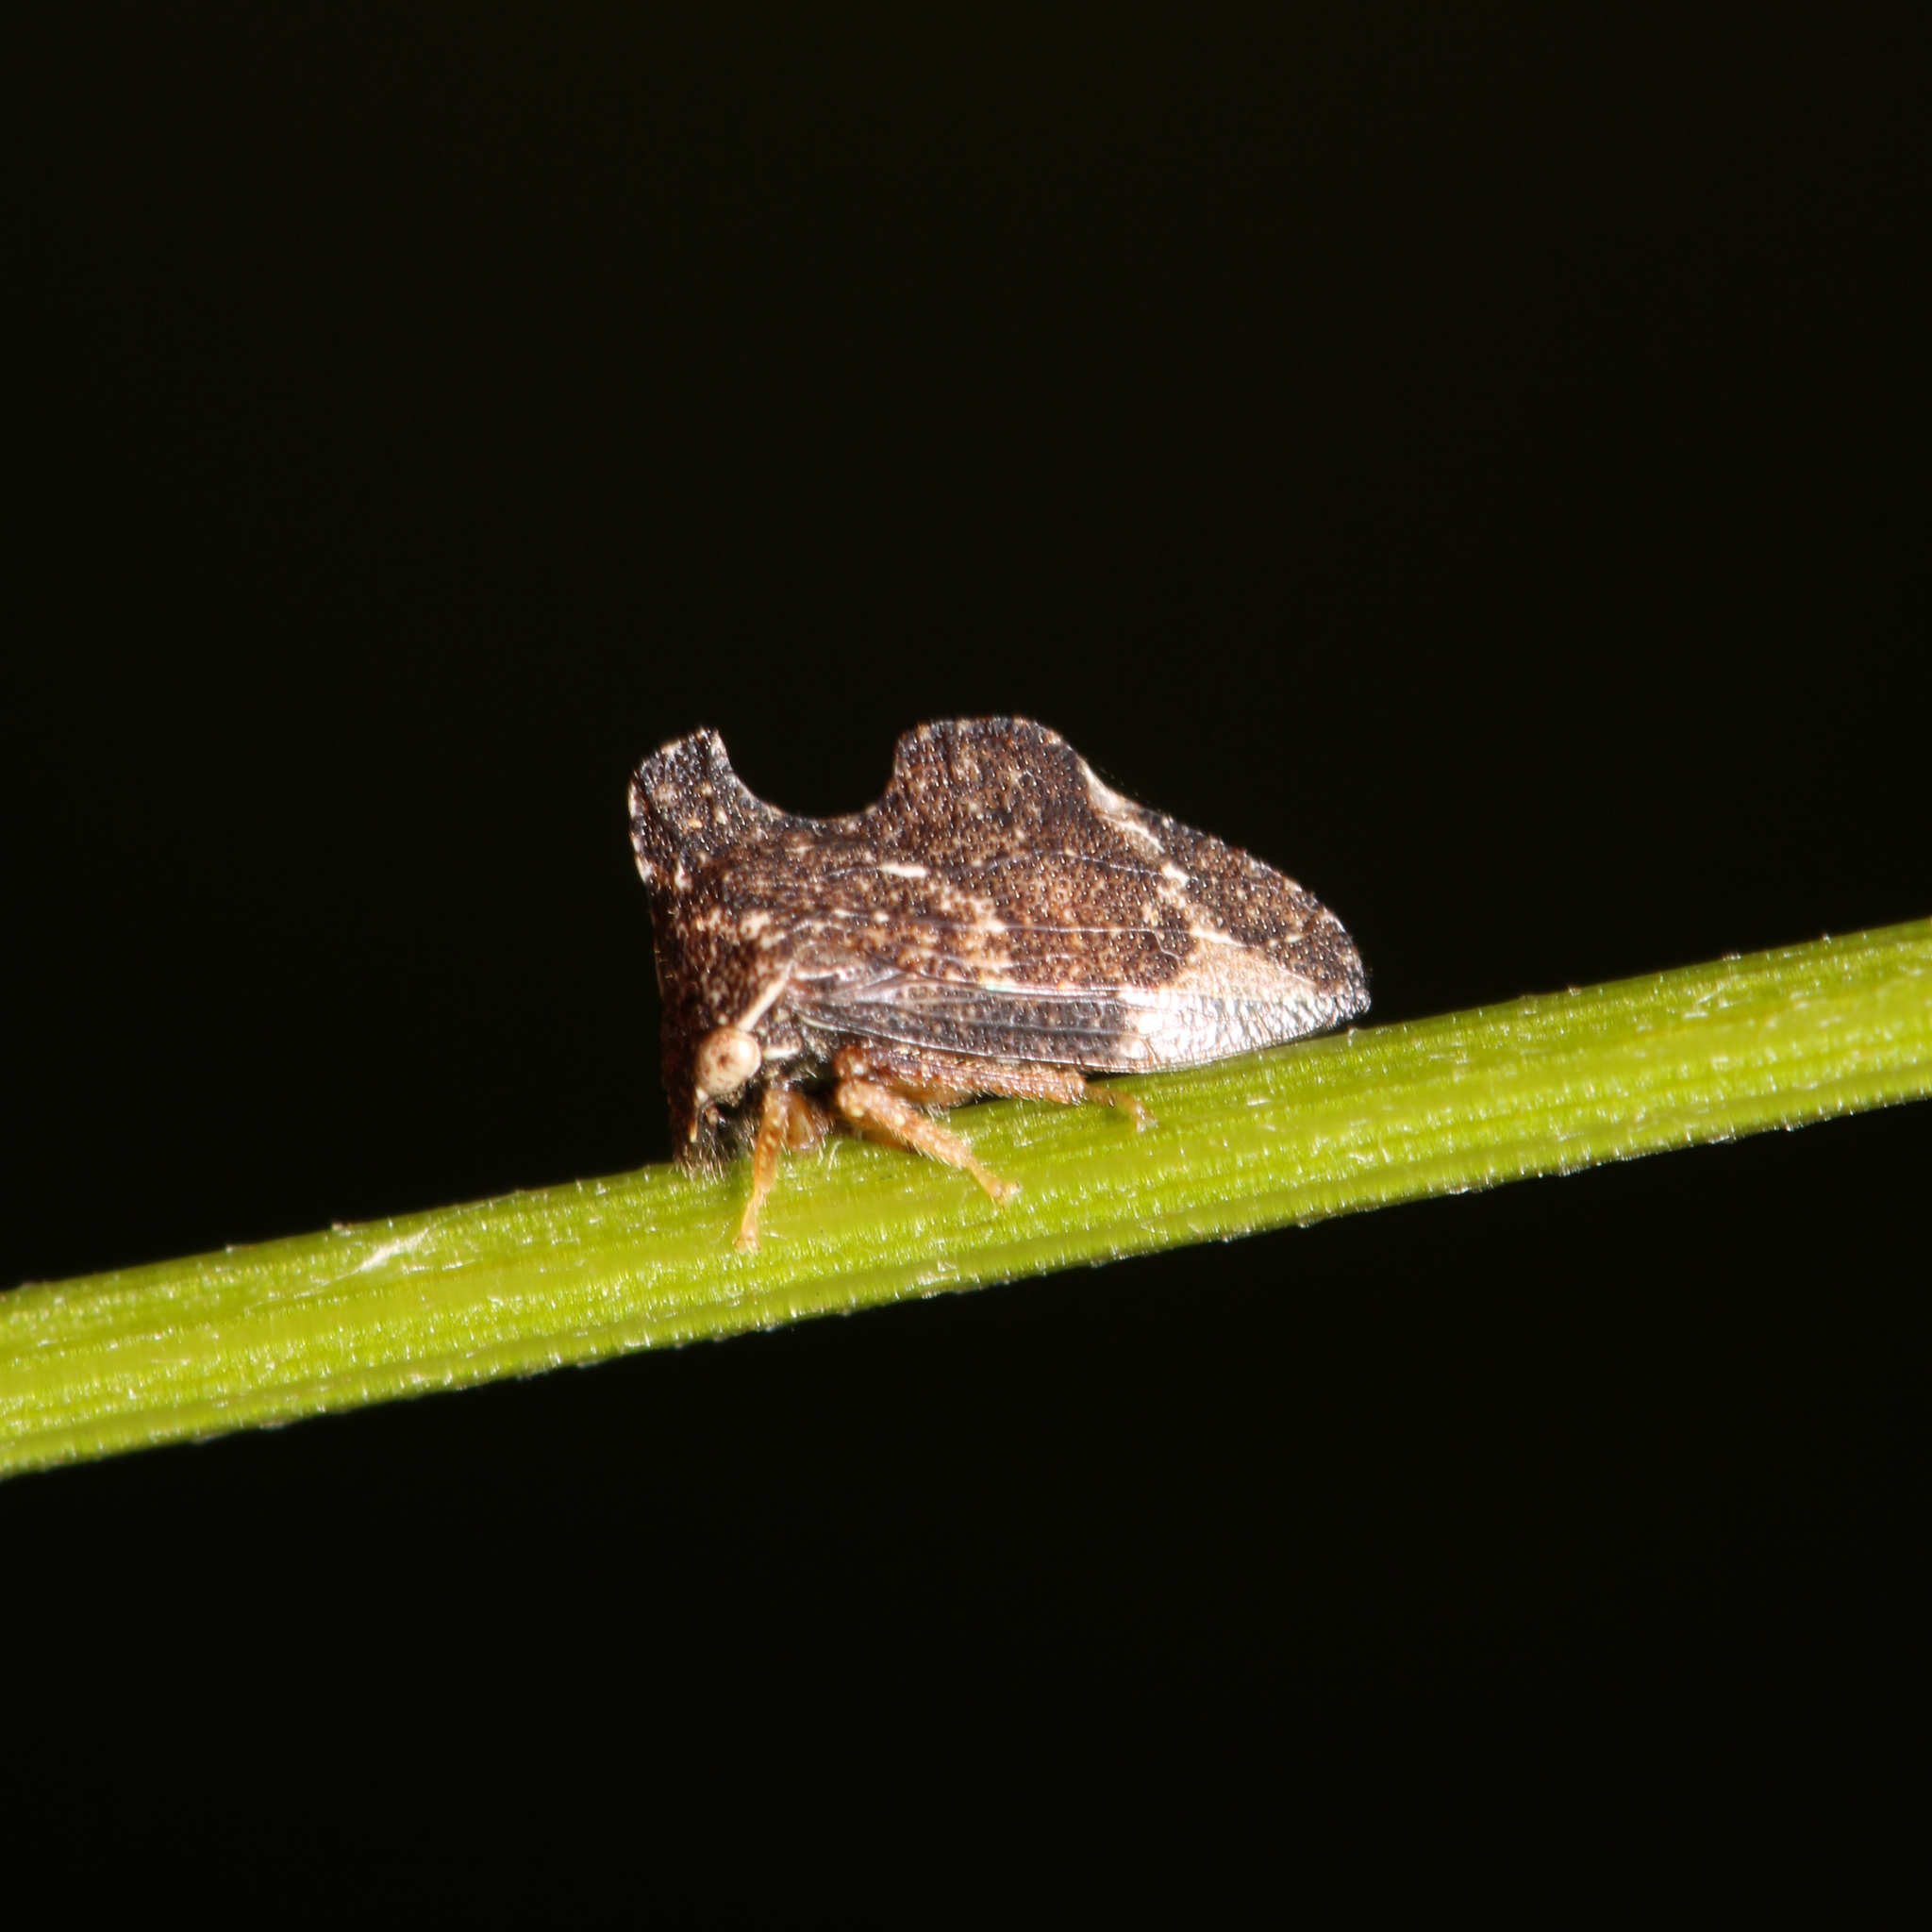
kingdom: Animalia
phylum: Arthropoda
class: Insecta
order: Hemiptera
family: Membracidae
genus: Entylia
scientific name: Entylia carinata
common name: Keeled treehopper
